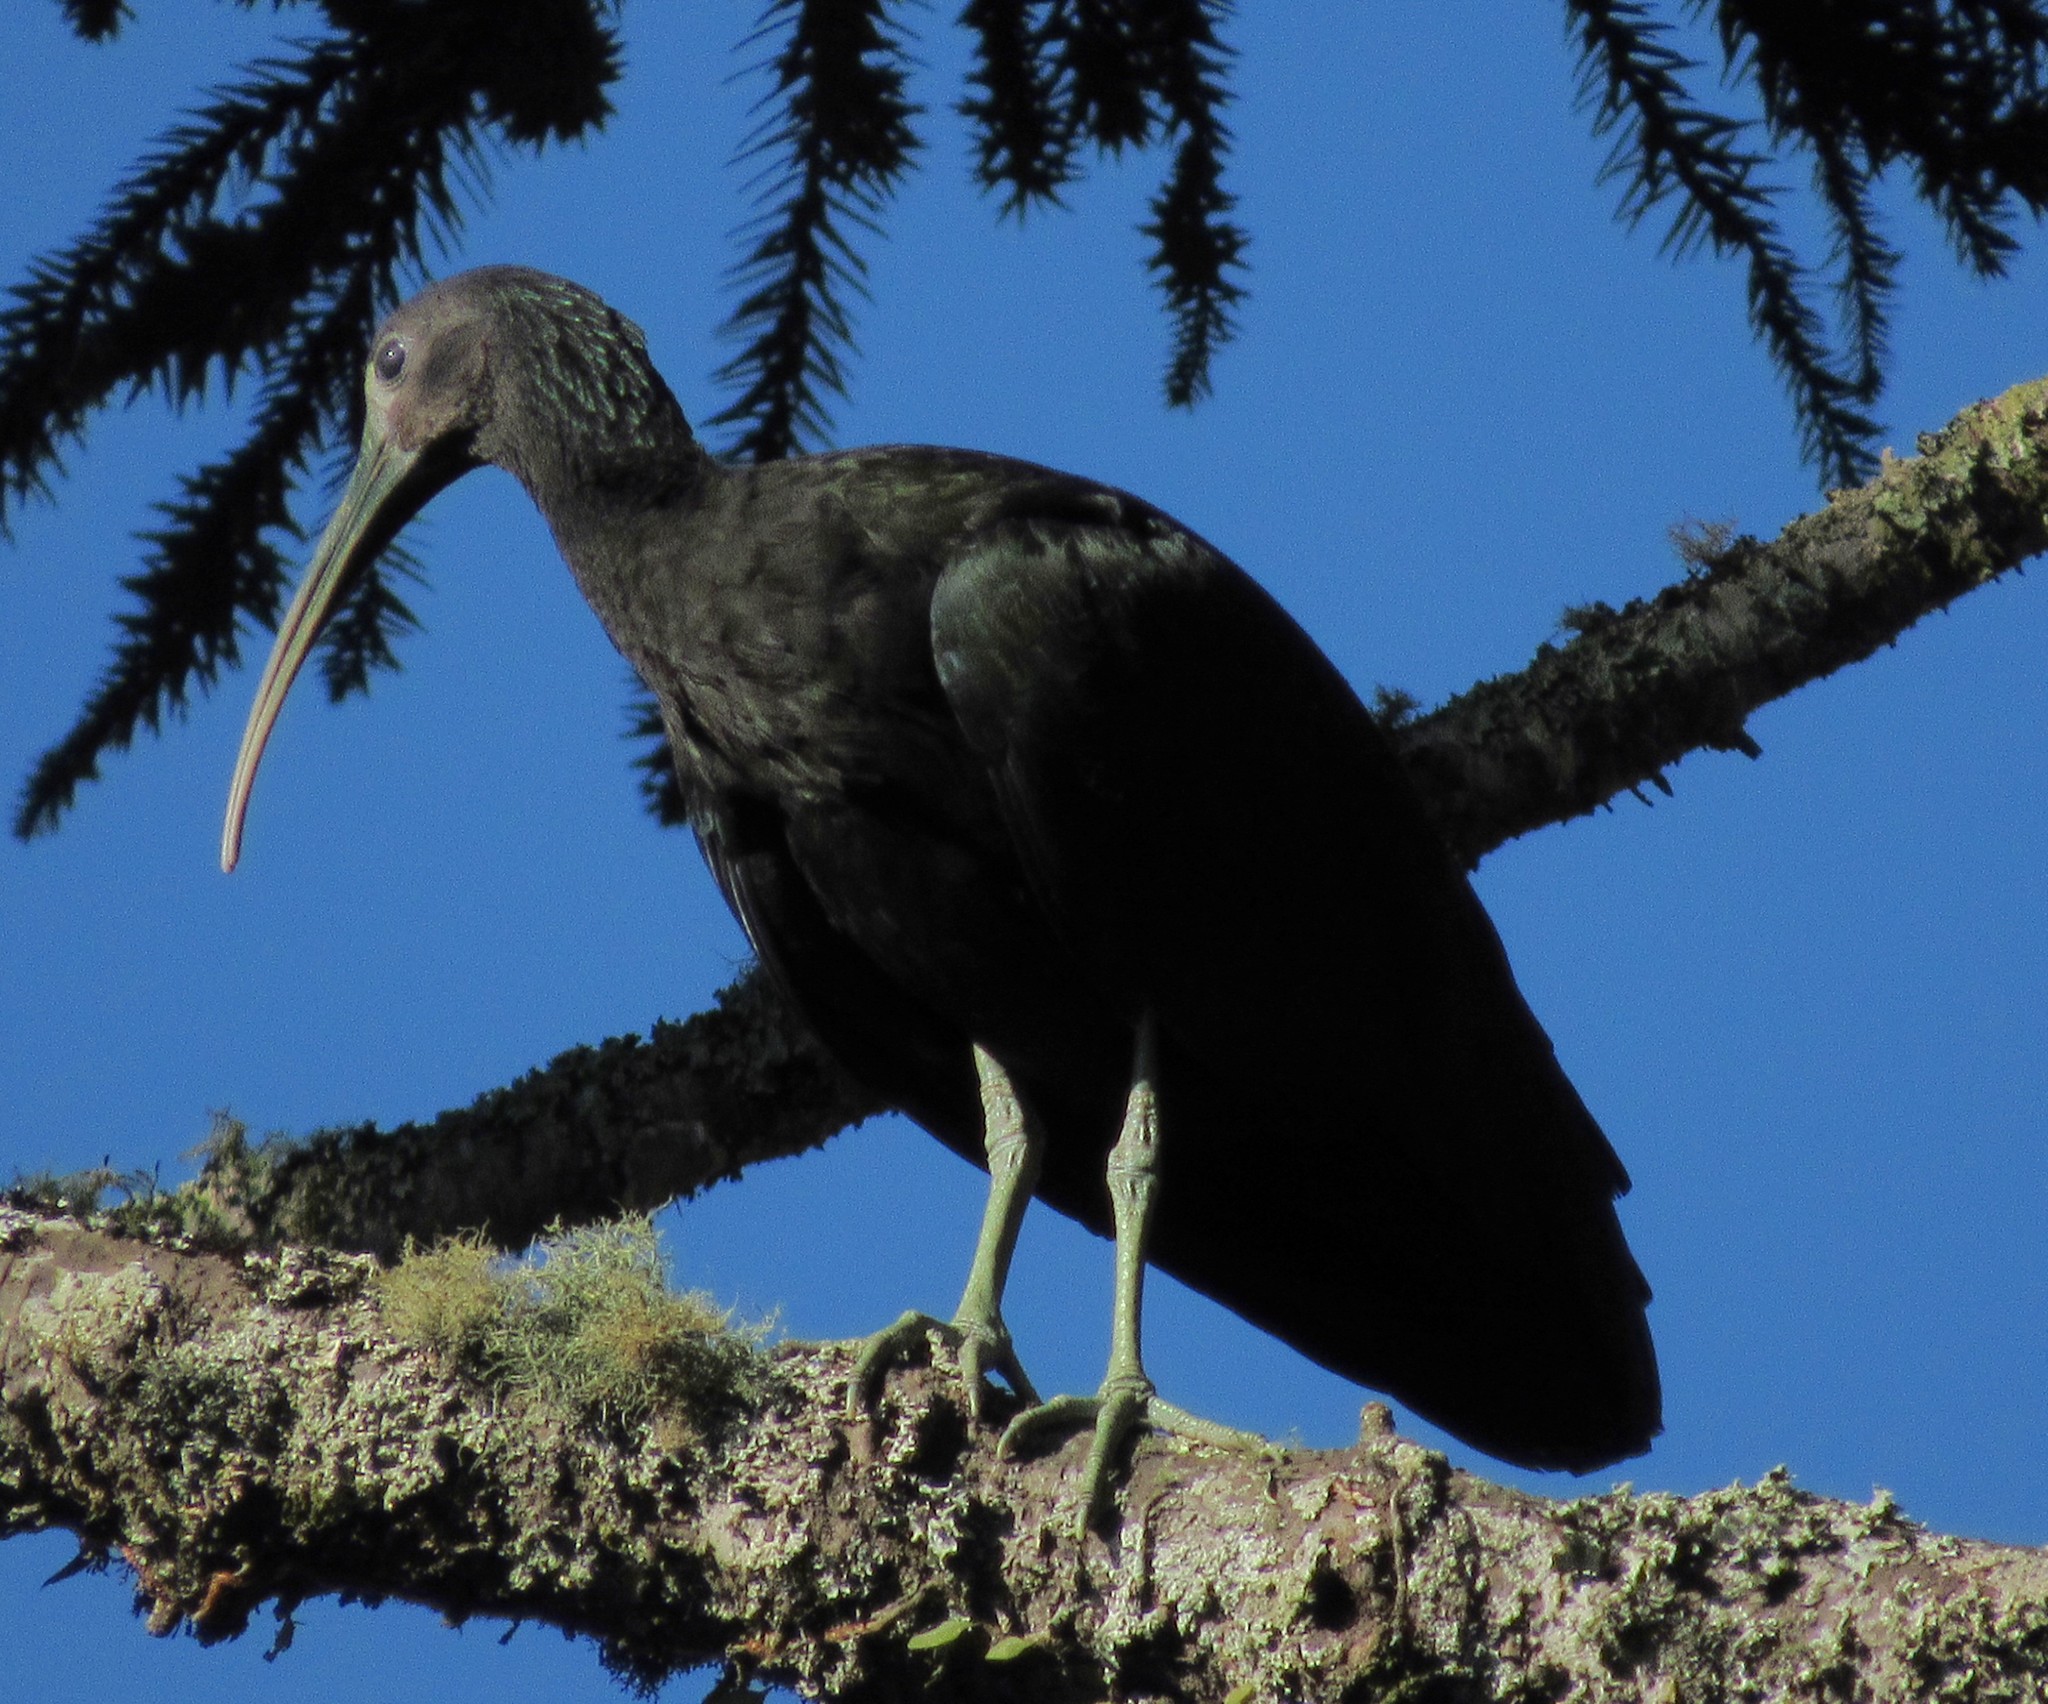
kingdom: Animalia
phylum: Chordata
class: Aves
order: Pelecaniformes
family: Threskiornithidae
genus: Mesembrinibis
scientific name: Mesembrinibis cayennensis
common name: Green ibis
